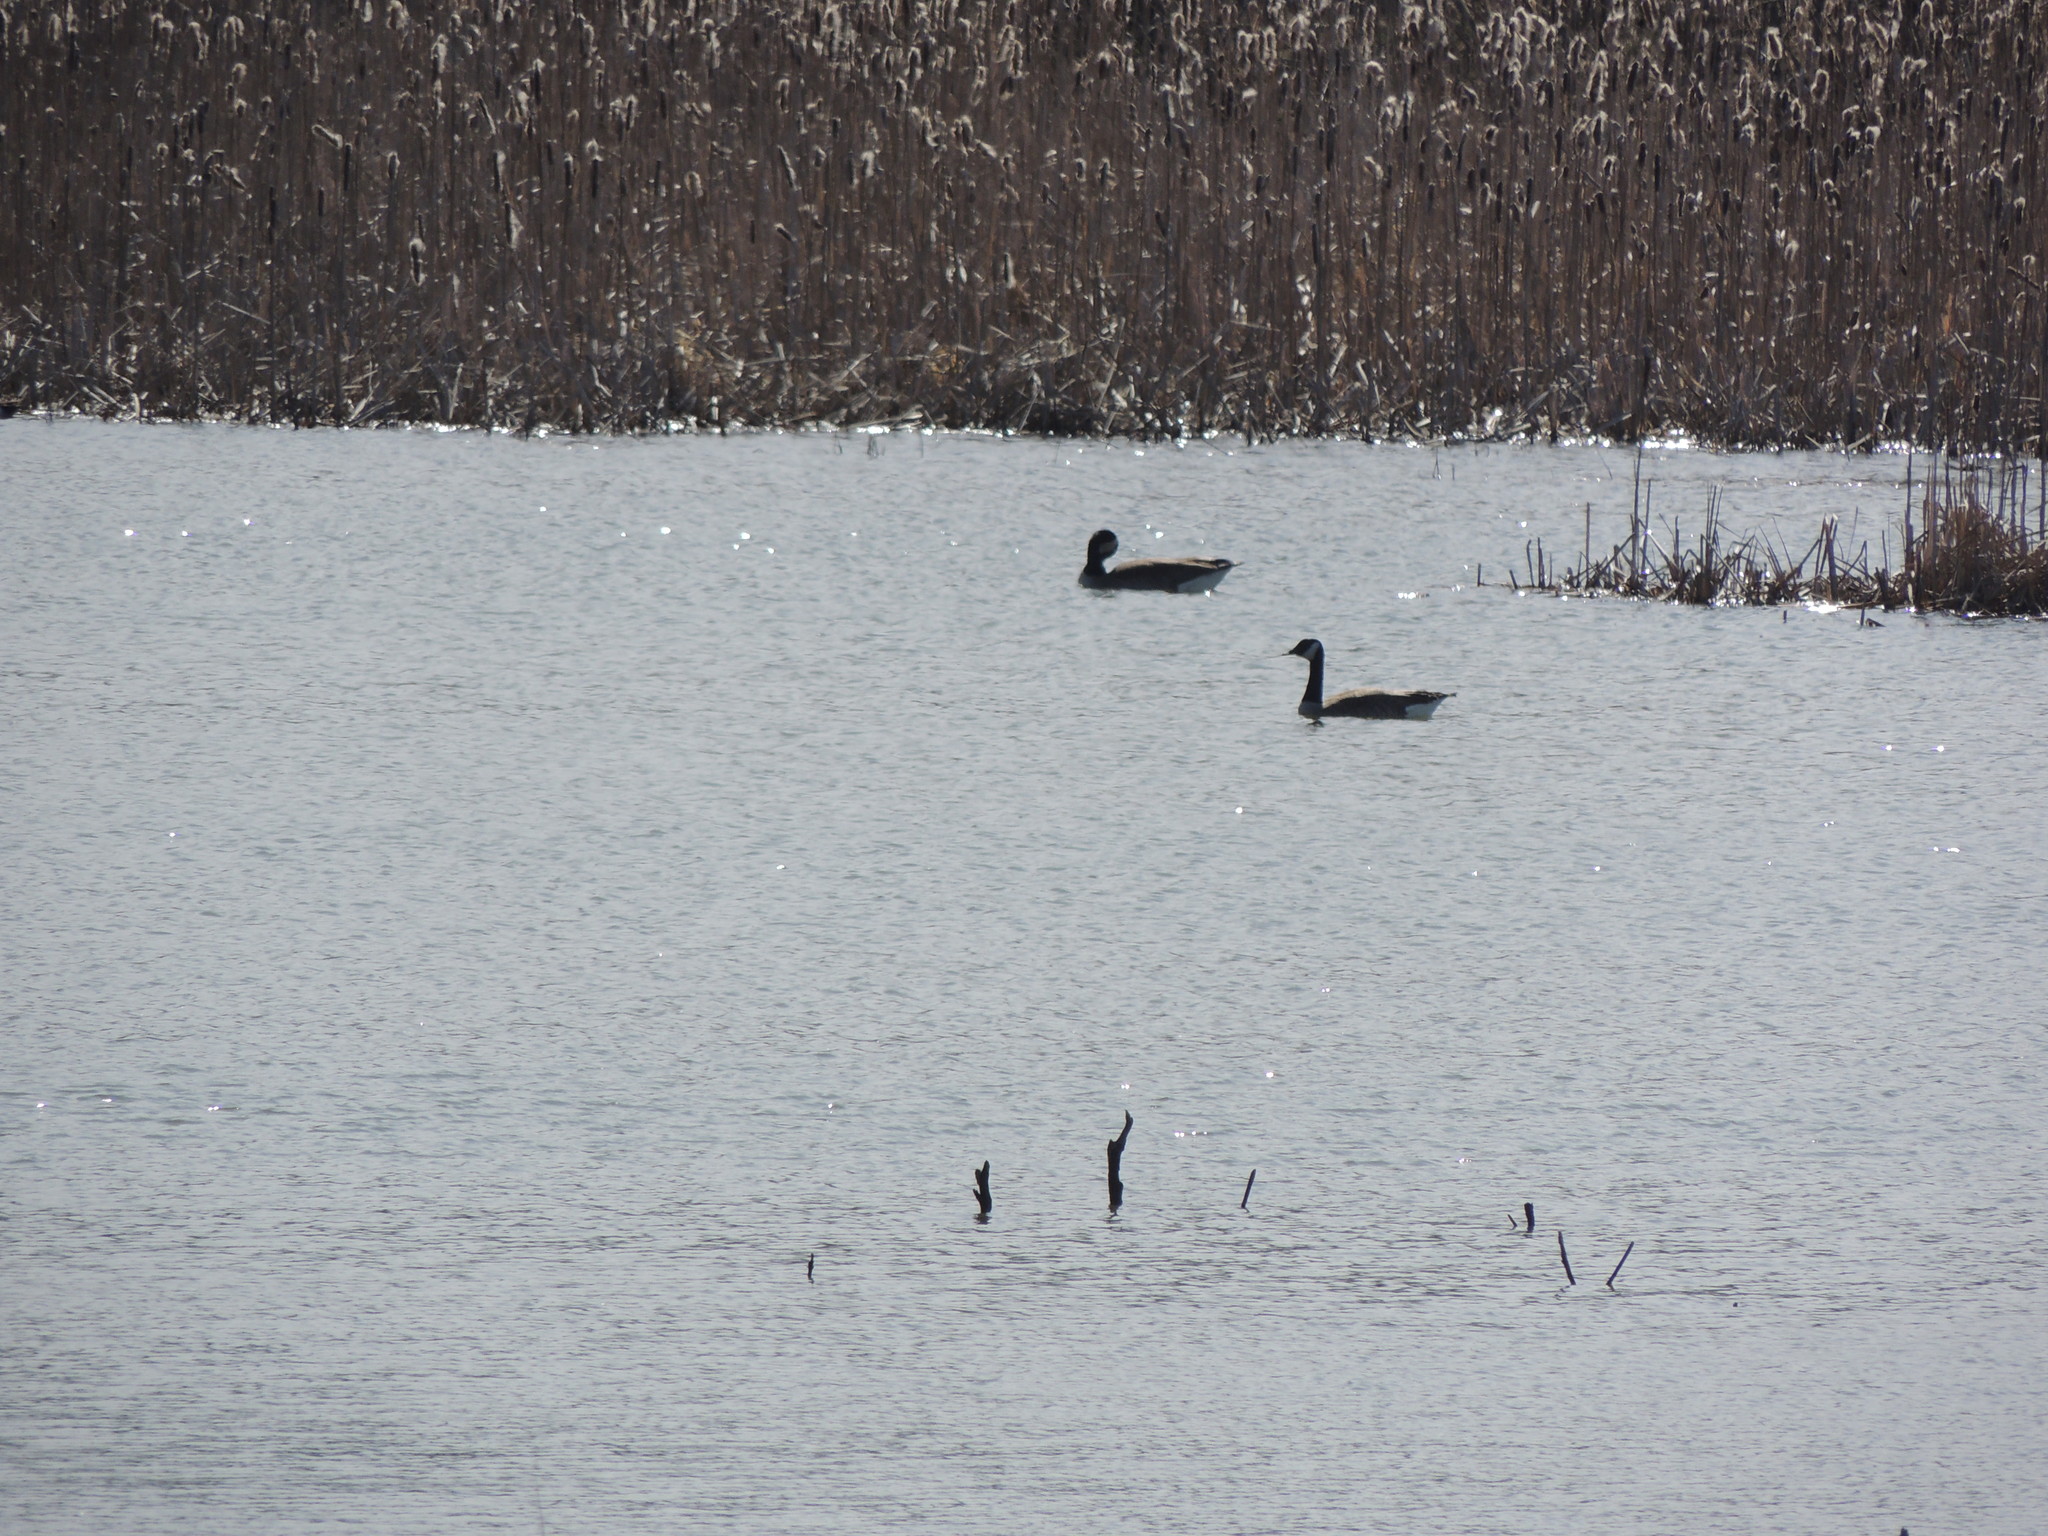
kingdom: Animalia
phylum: Chordata
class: Aves
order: Anseriformes
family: Anatidae
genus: Branta
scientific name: Branta canadensis
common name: Canada goose
